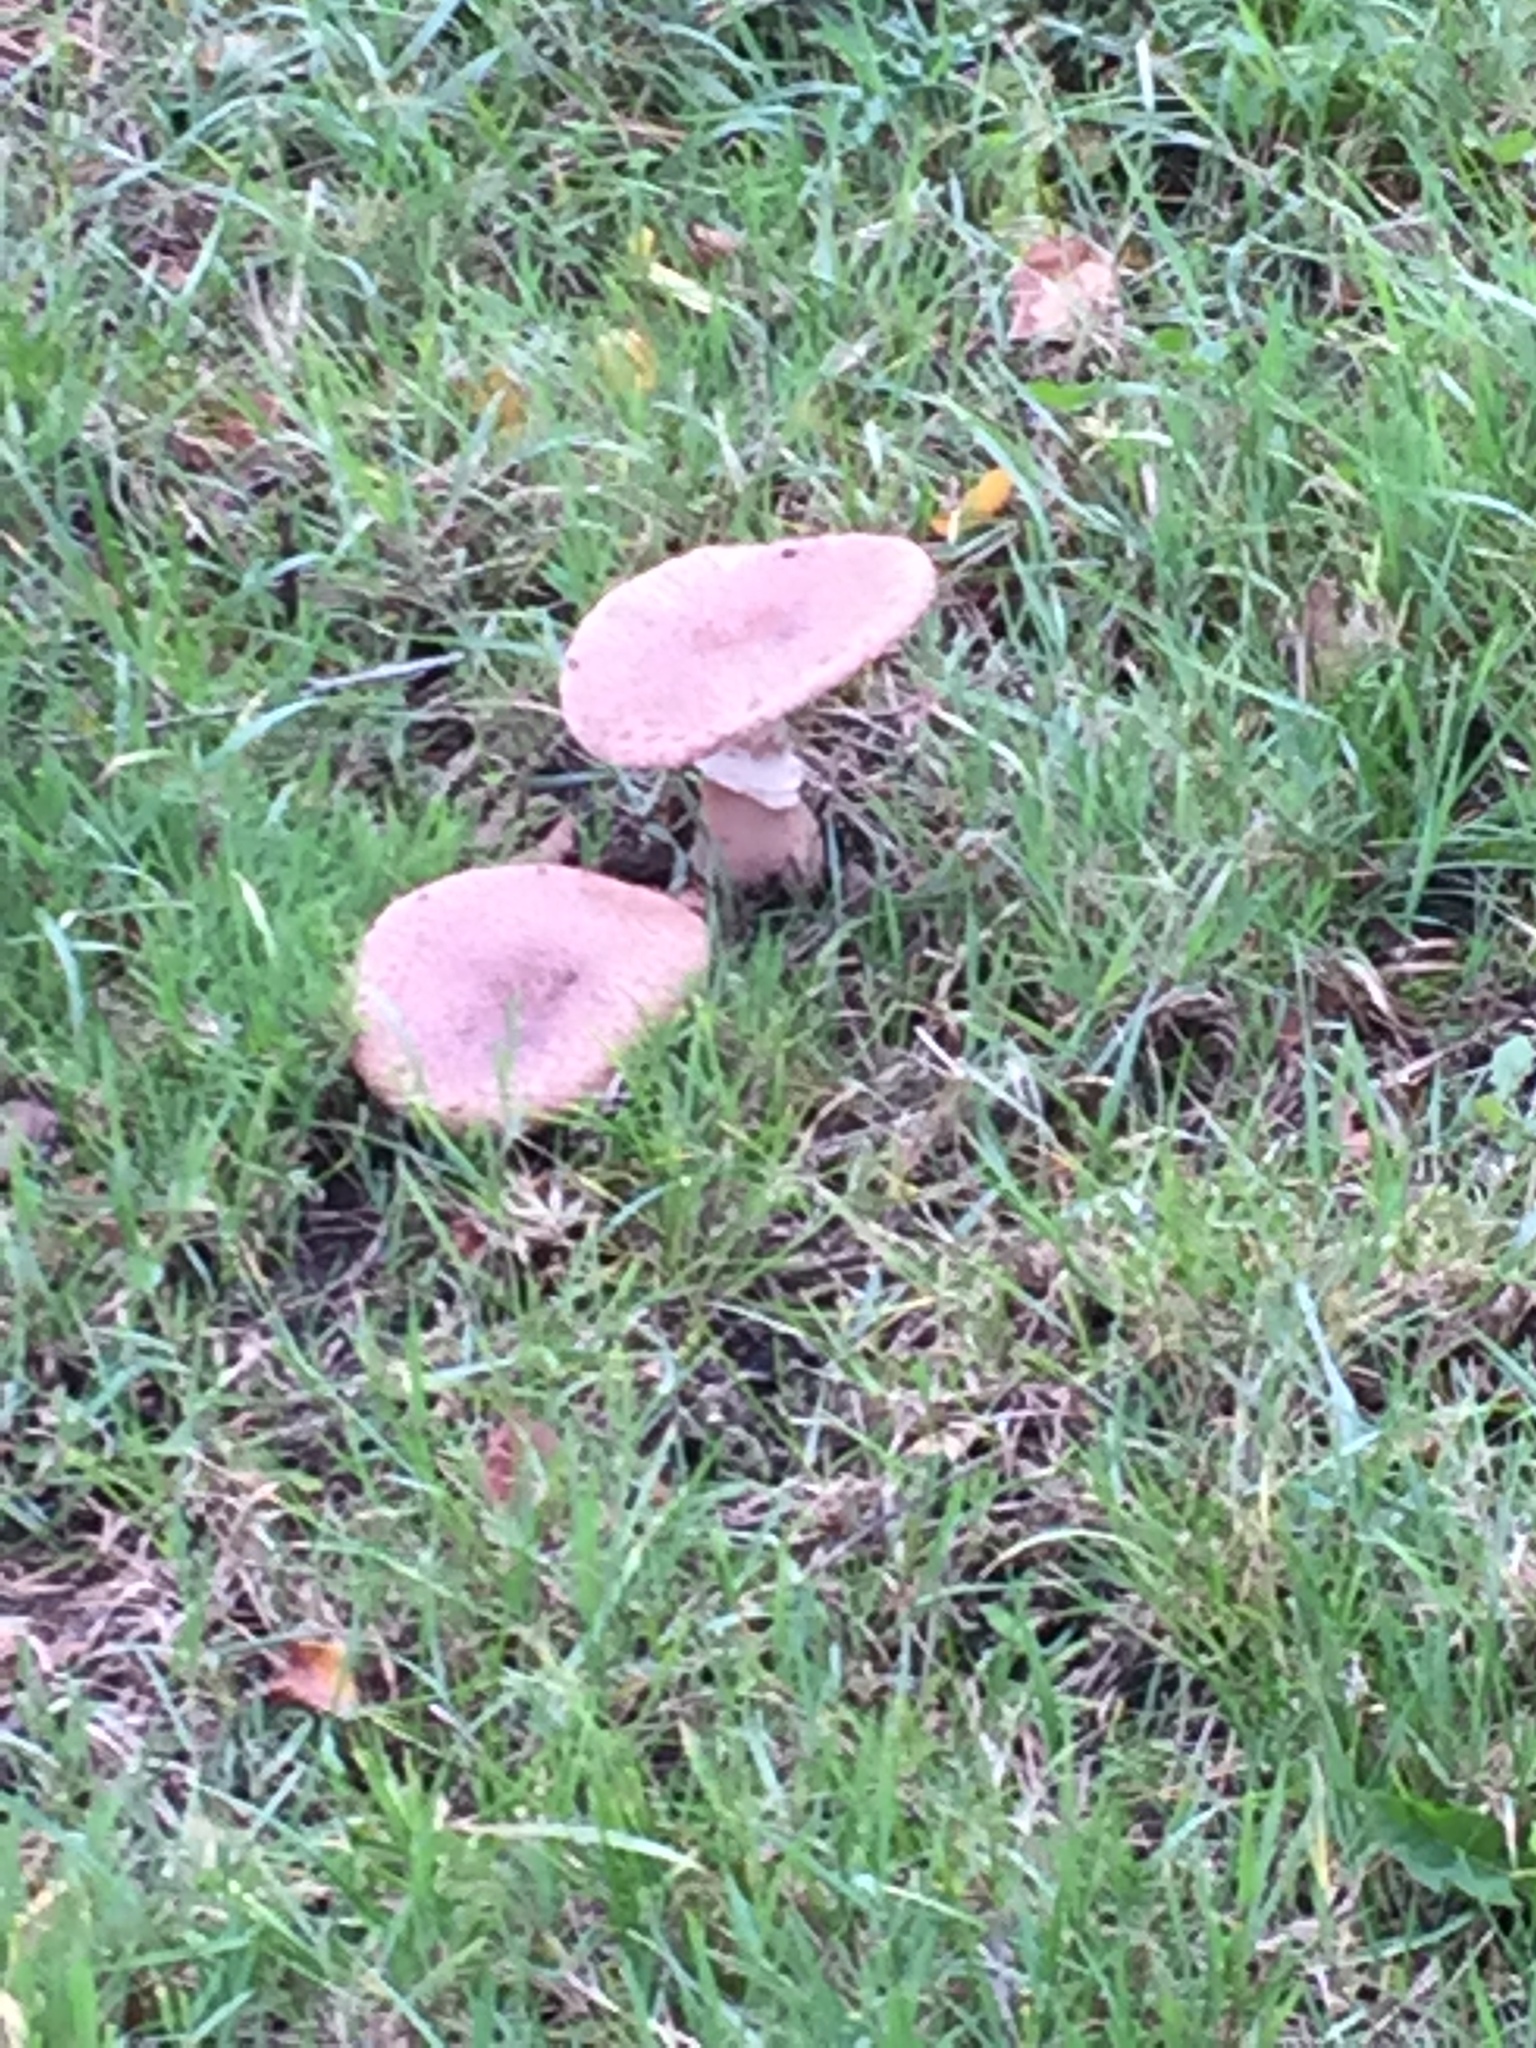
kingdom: Fungi
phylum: Basidiomycota
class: Agaricomycetes
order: Agaricales
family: Amanitaceae
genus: Amanita
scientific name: Amanita rubescens
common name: Blusher
